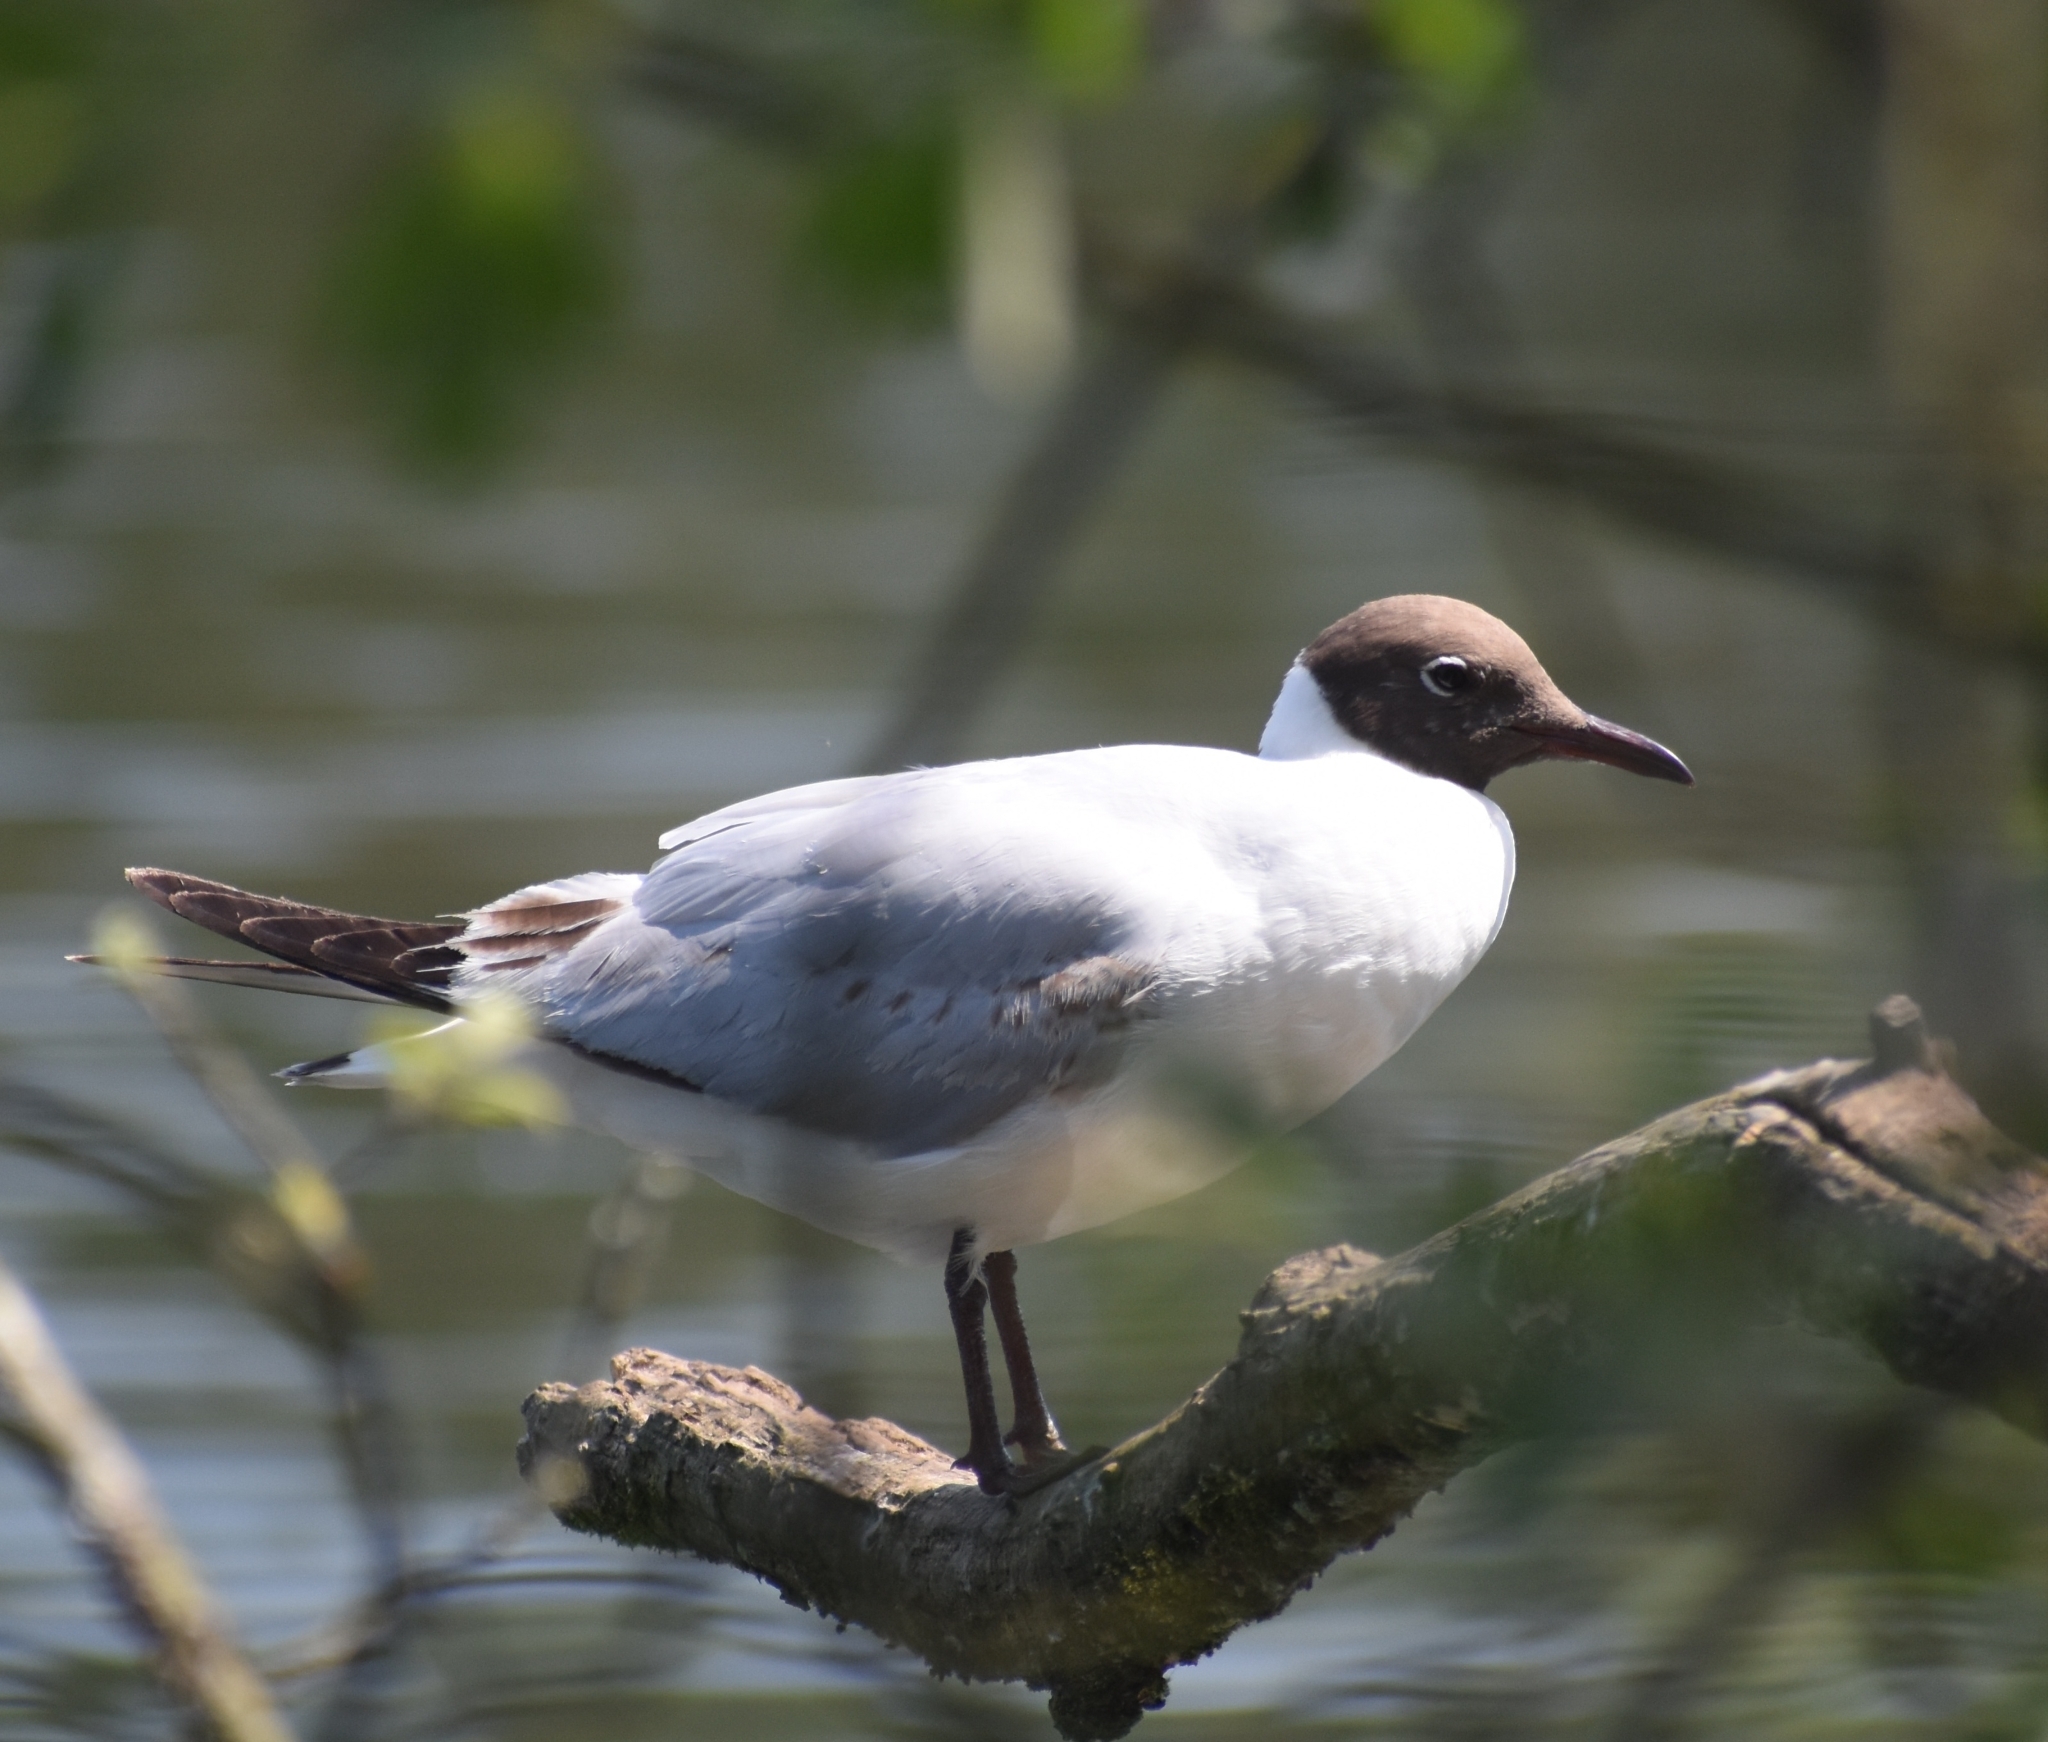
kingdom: Animalia
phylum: Chordata
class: Aves
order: Charadriiformes
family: Laridae
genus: Chroicocephalus
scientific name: Chroicocephalus ridibundus
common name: Black-headed gull
